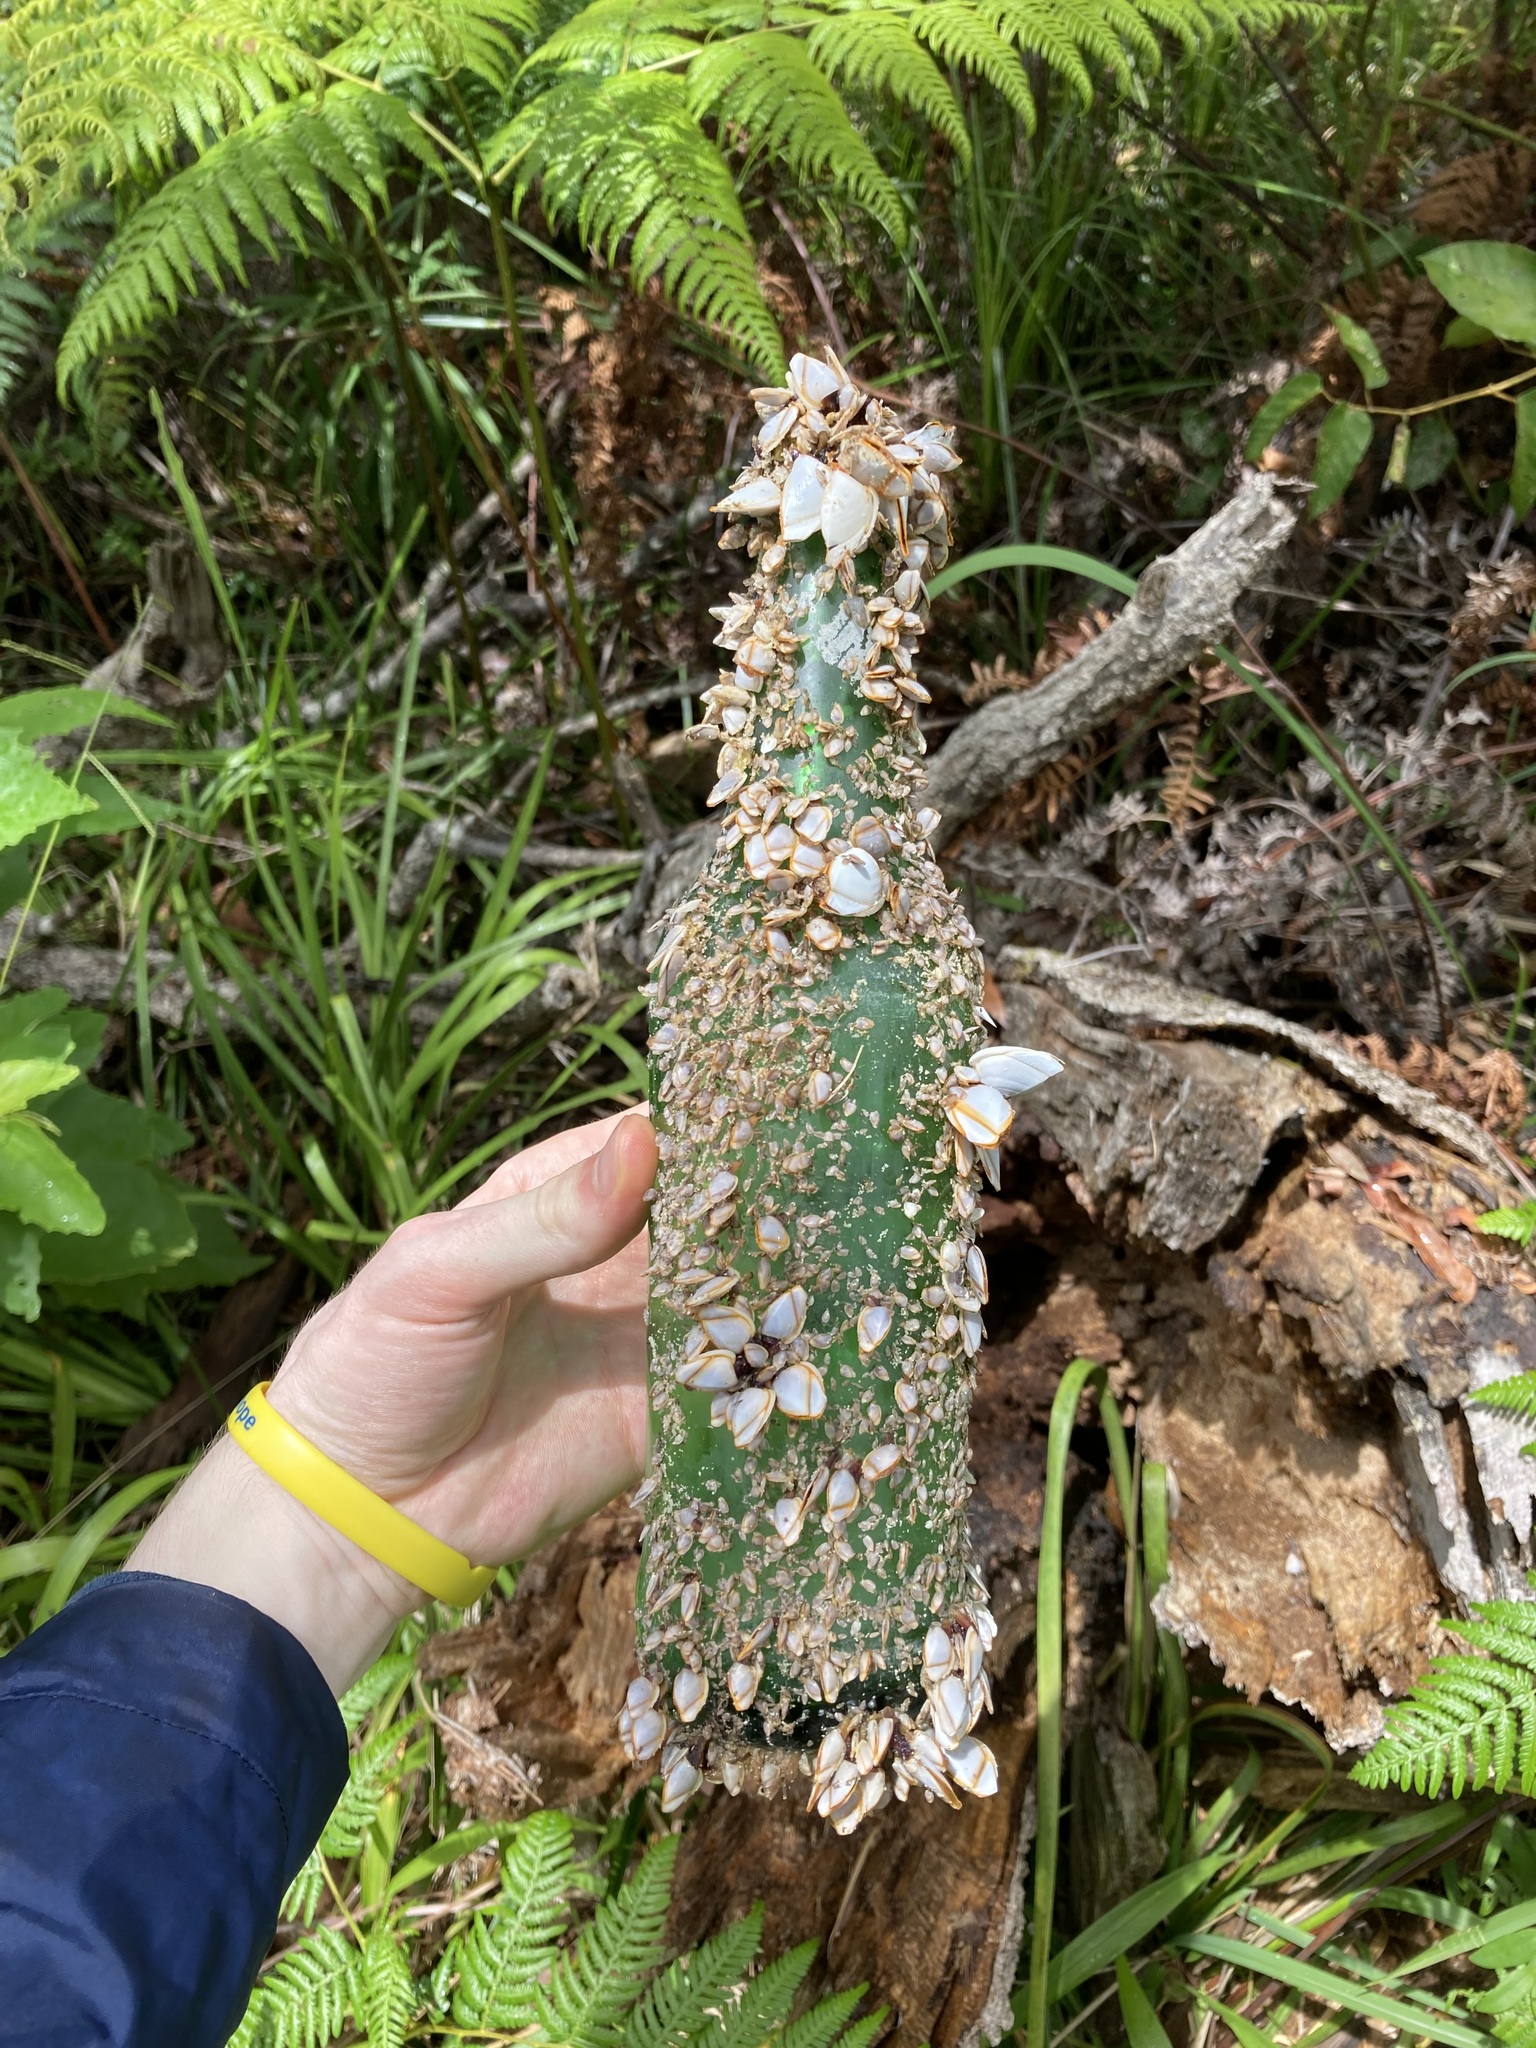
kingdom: Animalia
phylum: Arthropoda
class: Maxillopoda
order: Pedunculata
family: Lepadidae
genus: Lepas
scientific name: Lepas anserifera
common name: Goose barnacle
